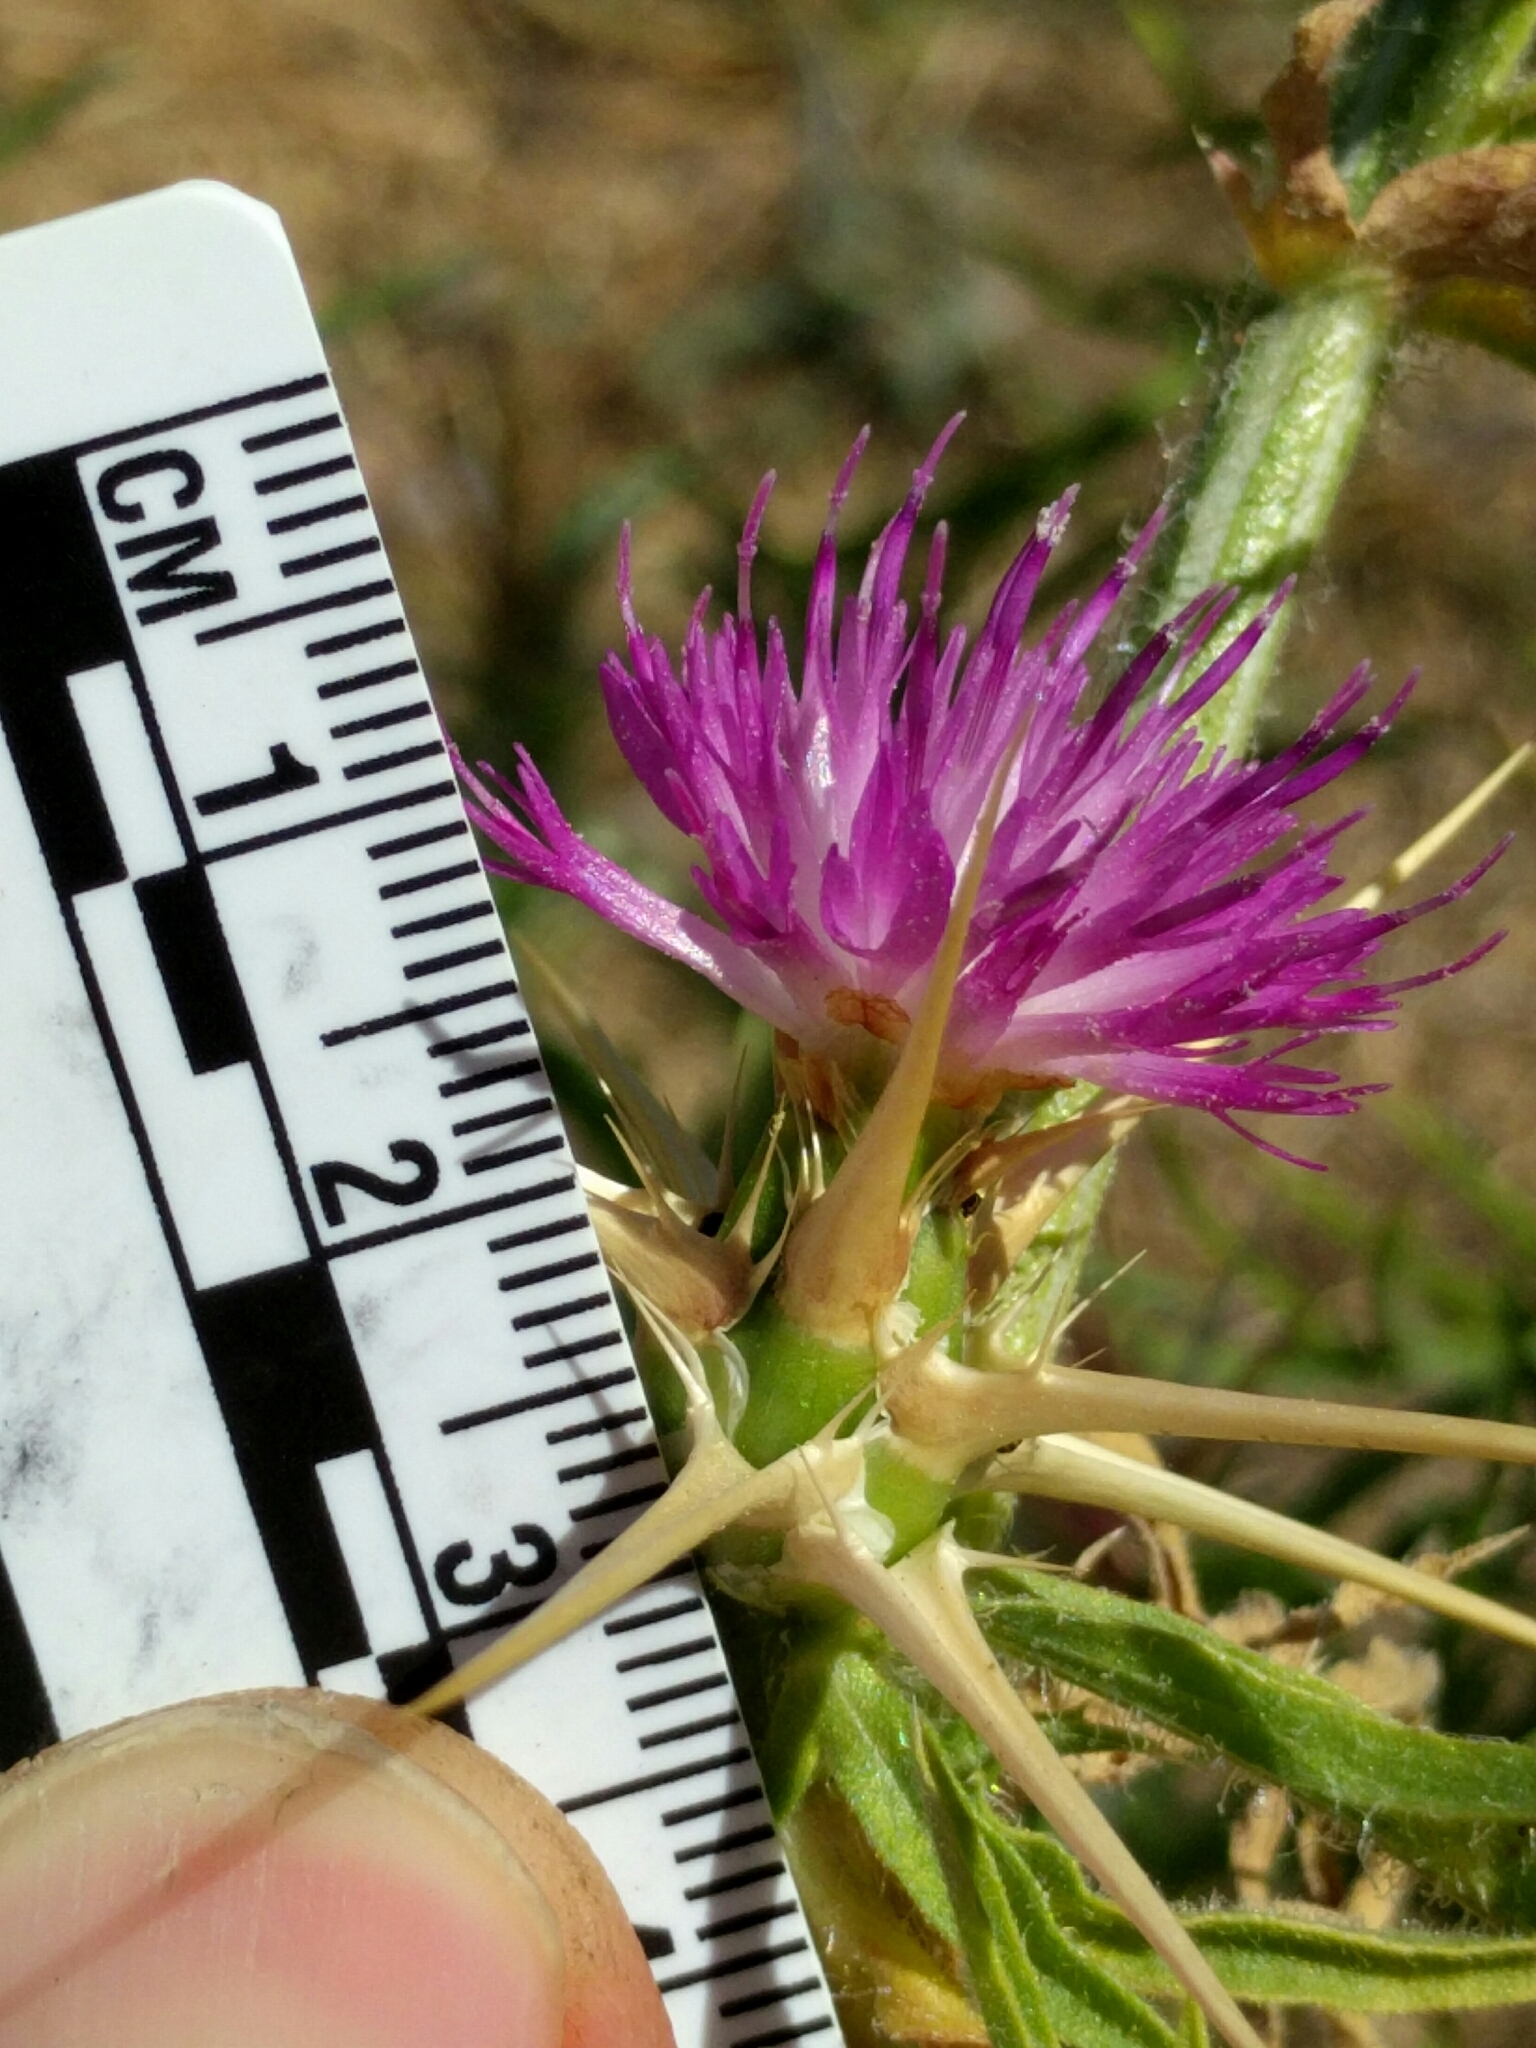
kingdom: Plantae
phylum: Tracheophyta
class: Magnoliopsida
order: Asterales
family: Asteraceae
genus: Centaurea
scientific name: Centaurea calcitrapa
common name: Red star-thistle
